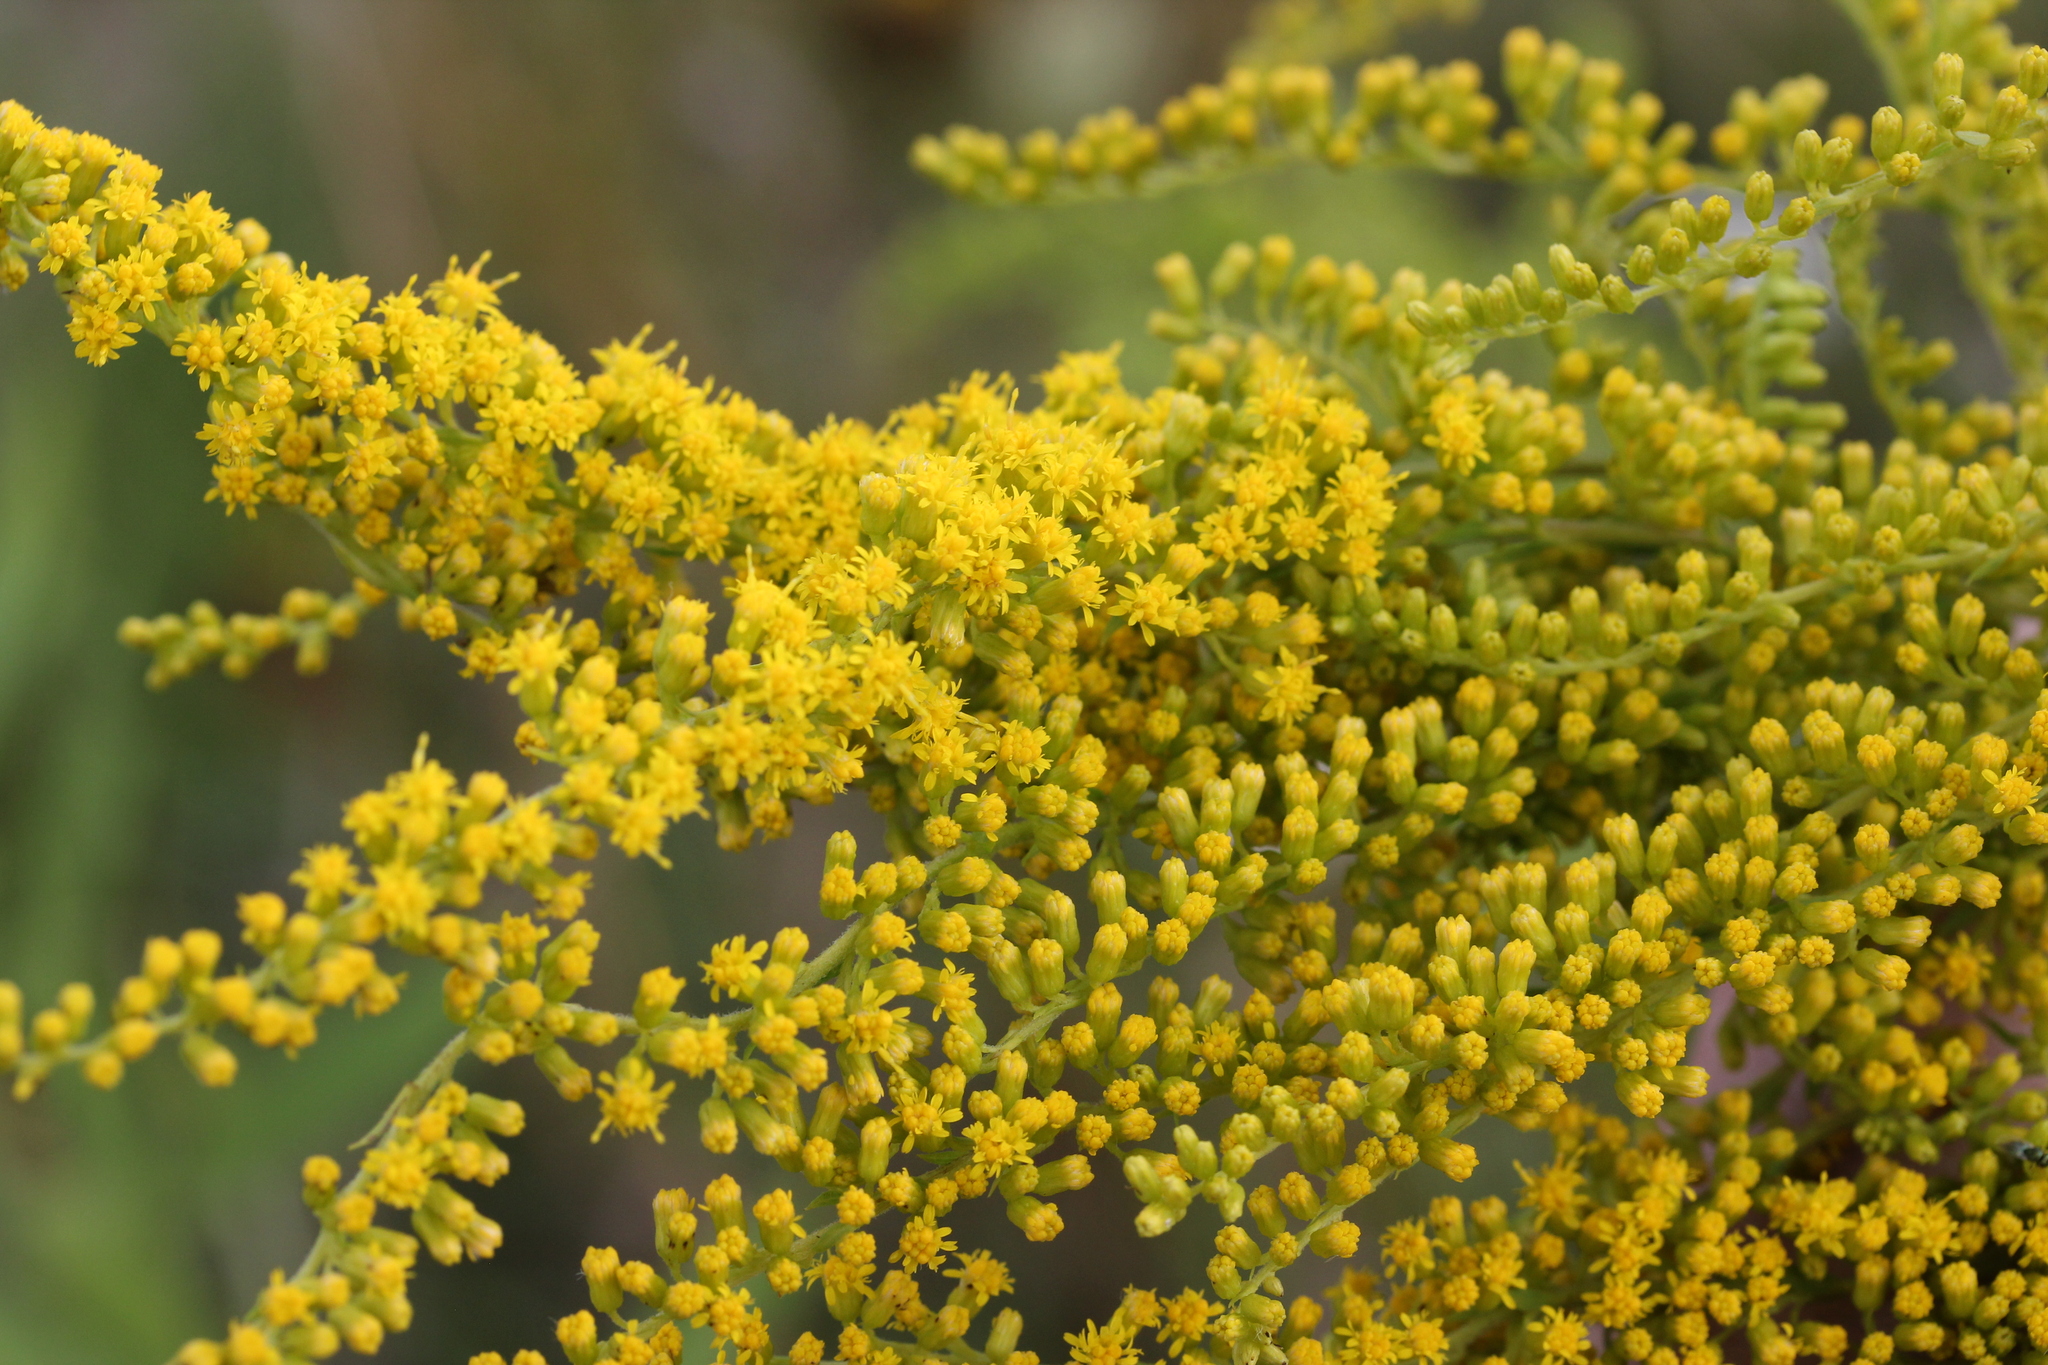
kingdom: Plantae
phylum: Tracheophyta
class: Magnoliopsida
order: Asterales
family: Asteraceae
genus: Solidago
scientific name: Solidago canadensis
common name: Canada goldenrod
